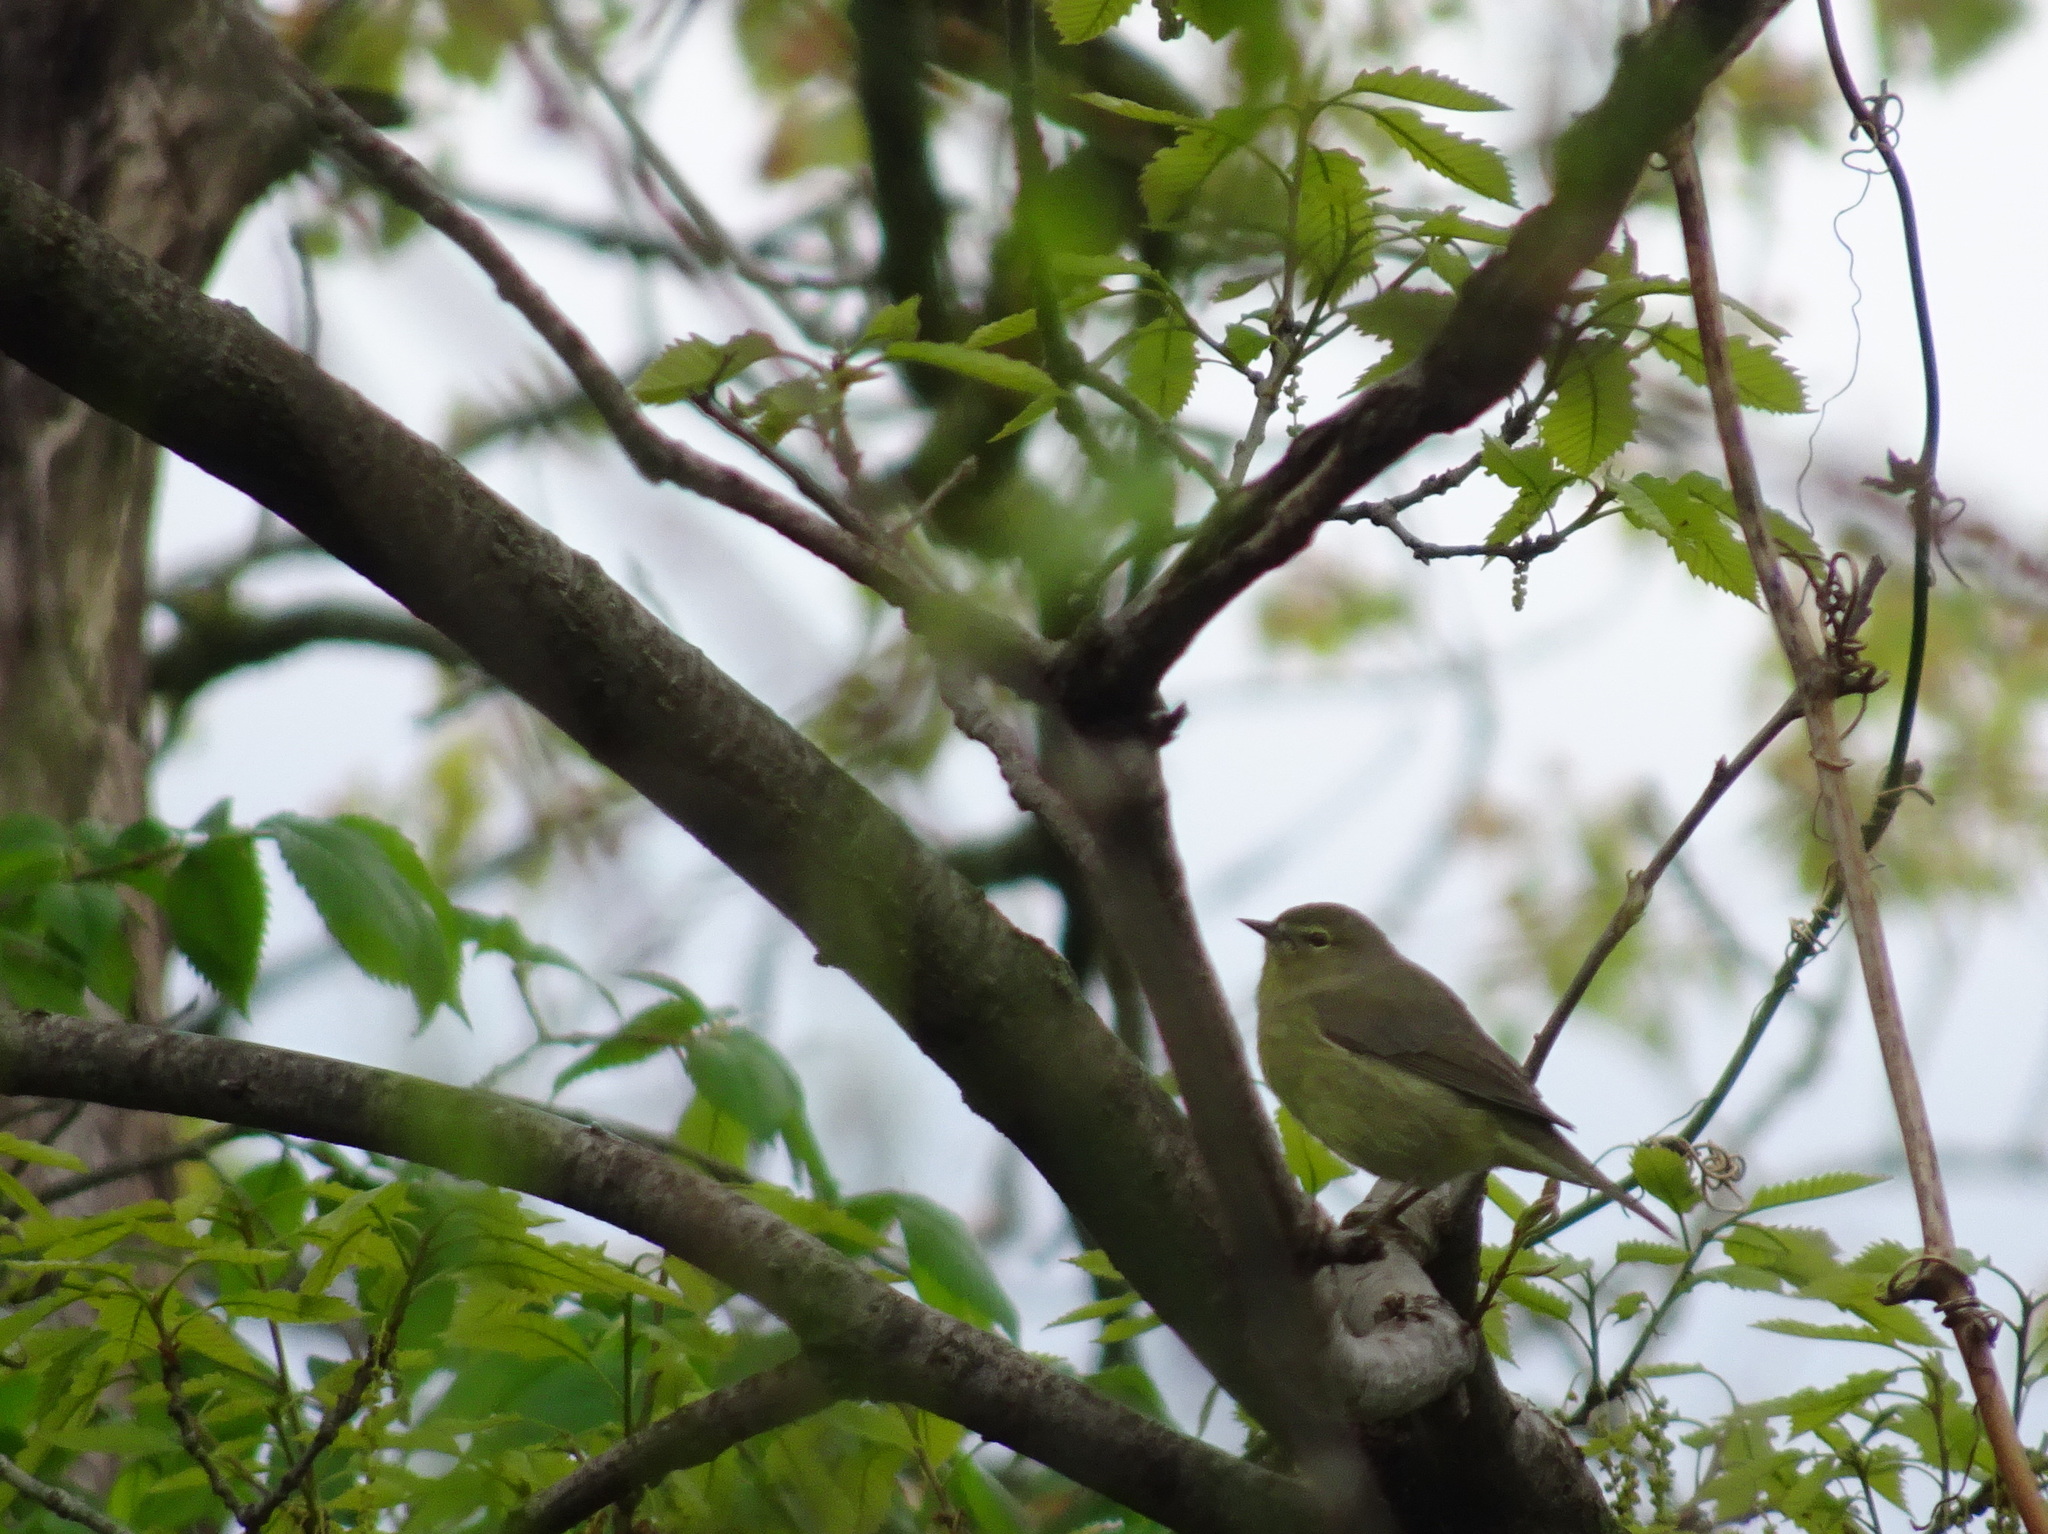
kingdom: Animalia
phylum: Chordata
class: Aves
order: Passeriformes
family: Parulidae
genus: Leiothlypis
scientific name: Leiothlypis celata
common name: Orange-crowned warbler
